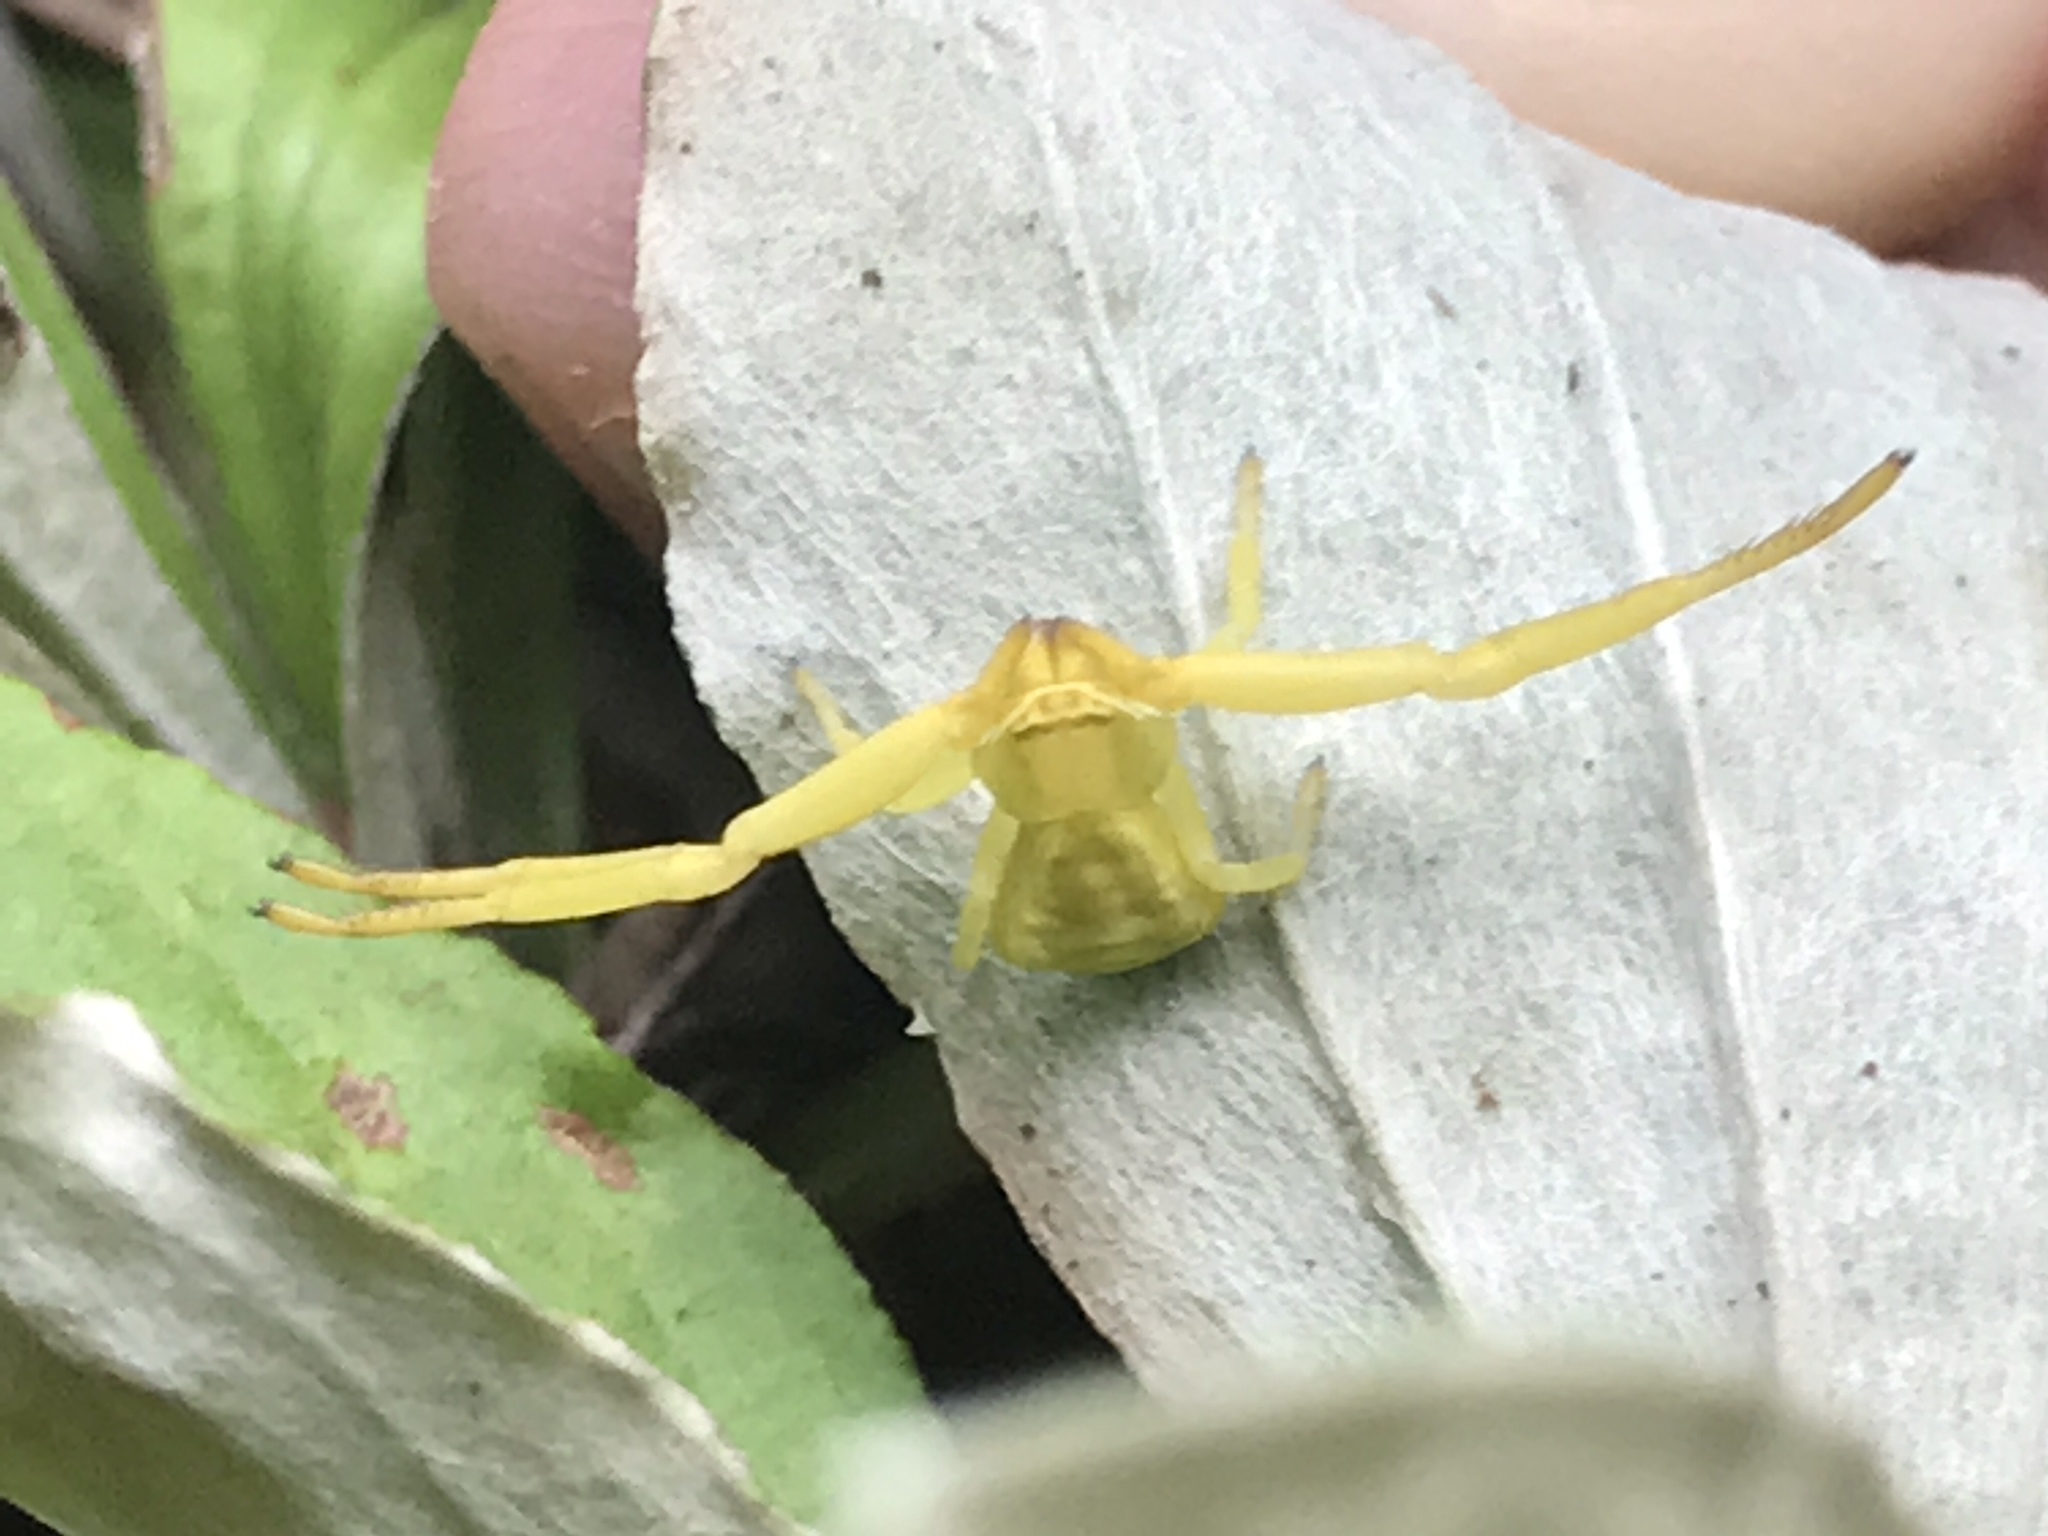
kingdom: Animalia
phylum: Arthropoda
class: Arachnida
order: Araneae
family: Thomisidae
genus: Misumenoides
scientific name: Misumenoides formosipes
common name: White-banded crab spider
